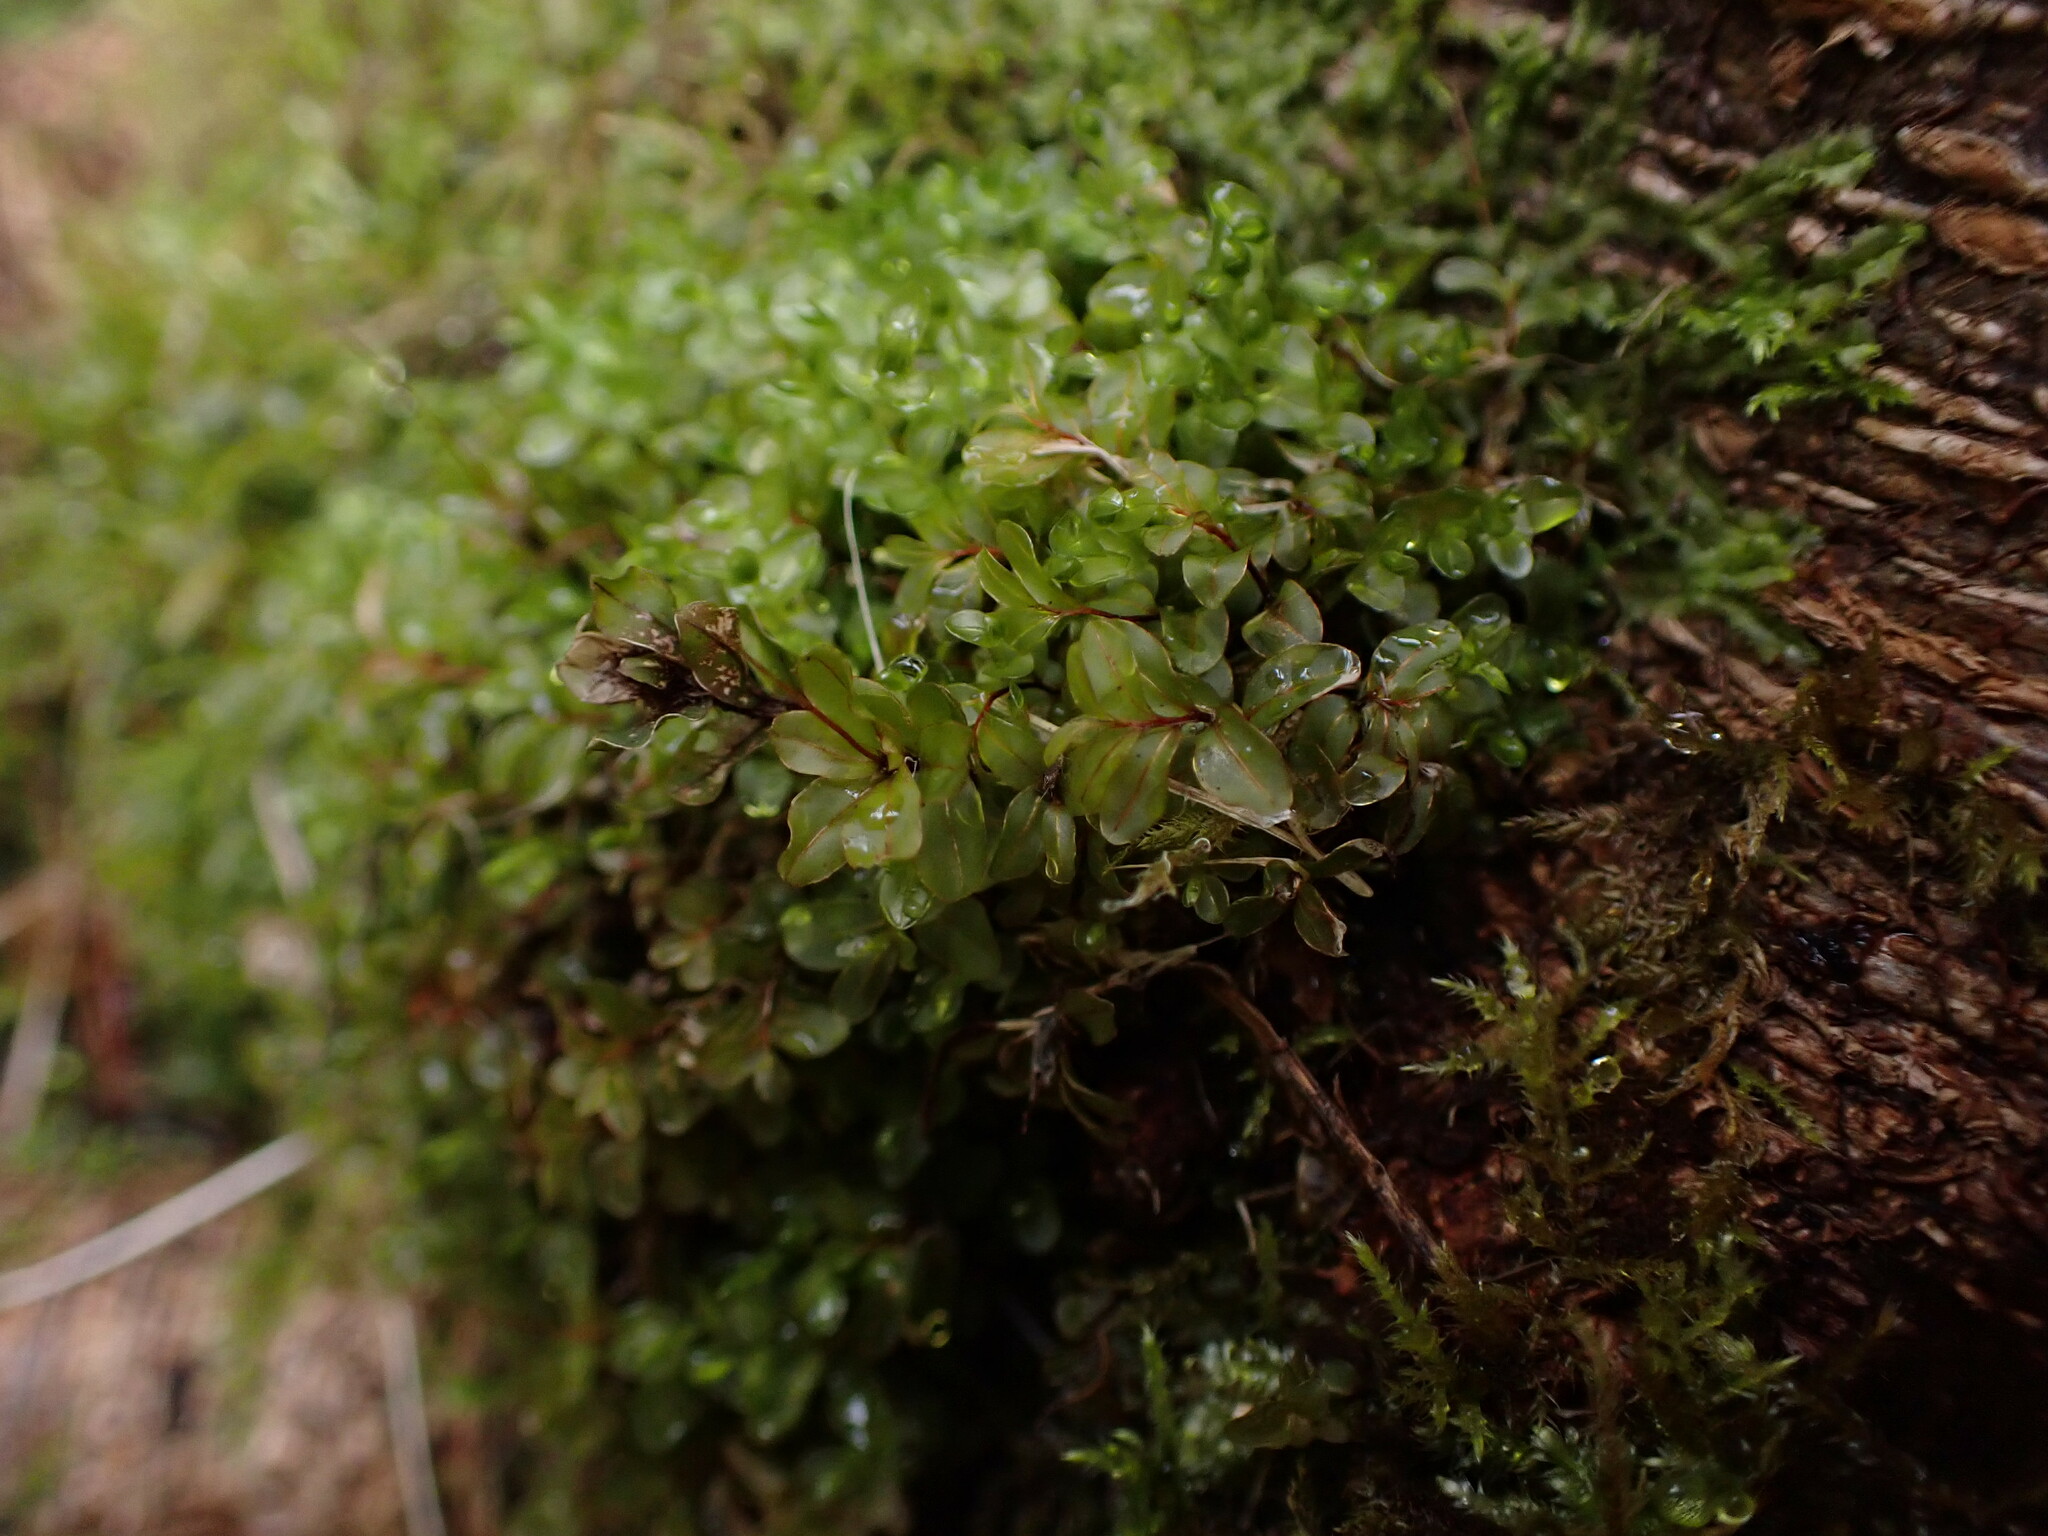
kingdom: Plantae
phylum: Bryophyta
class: Bryopsida
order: Bryales
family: Mniaceae
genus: Rhizomnium
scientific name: Rhizomnium glabrescens
